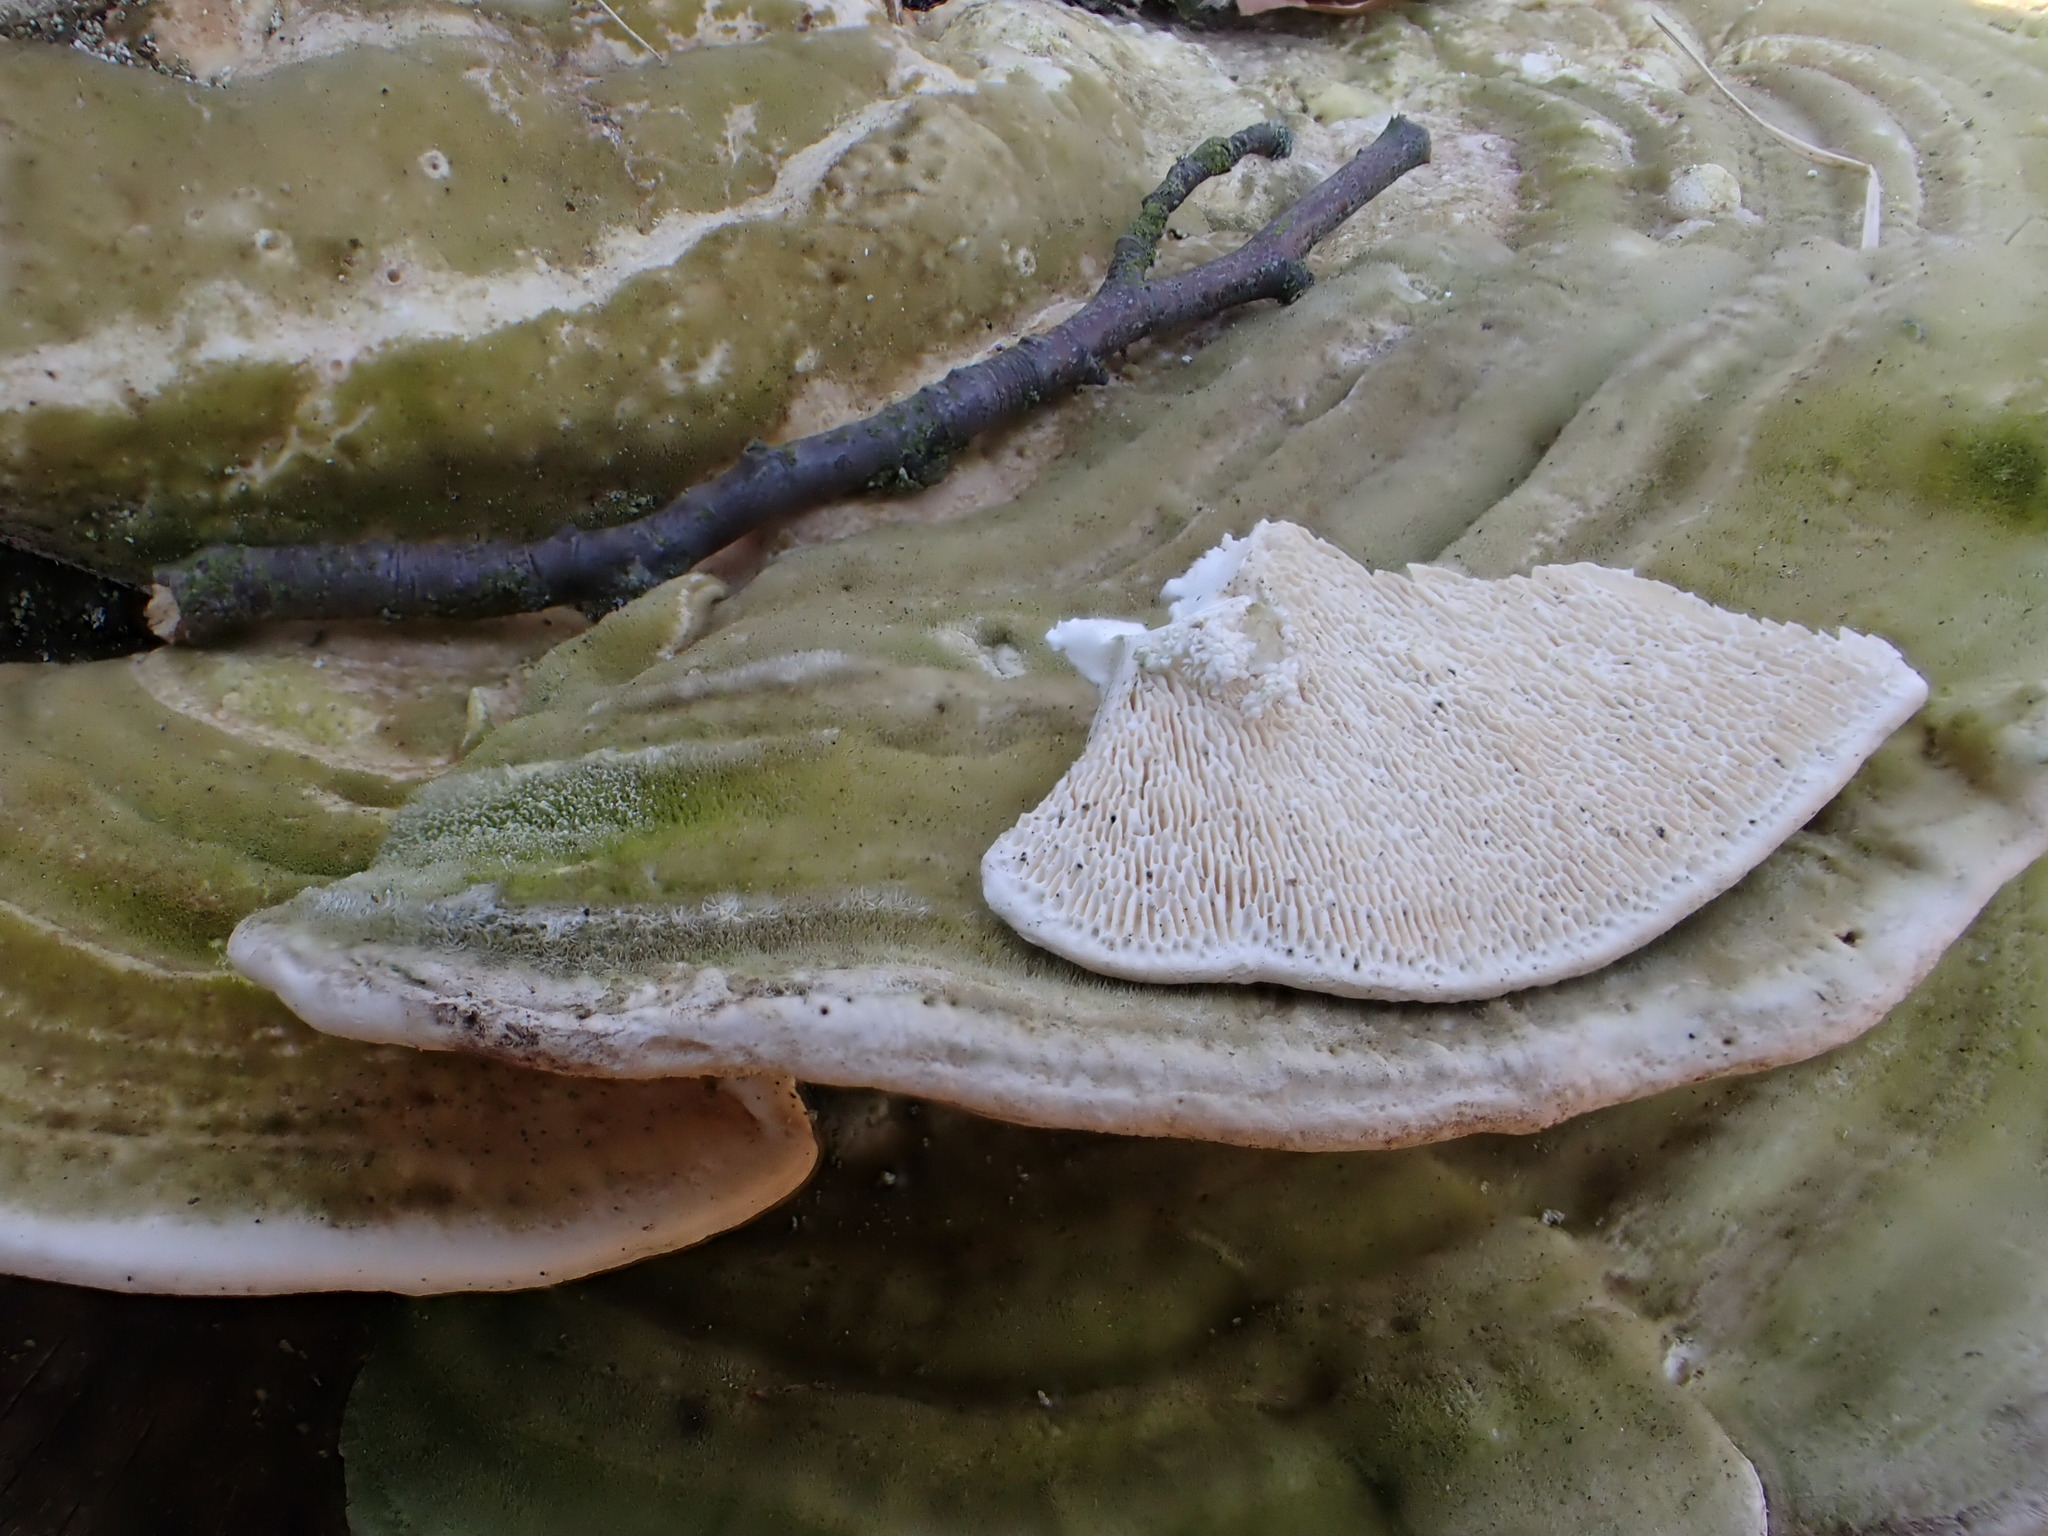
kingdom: Fungi
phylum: Basidiomycota
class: Agaricomycetes
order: Polyporales
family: Polyporaceae
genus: Trametes
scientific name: Trametes gibbosa
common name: Lumpy bracket
